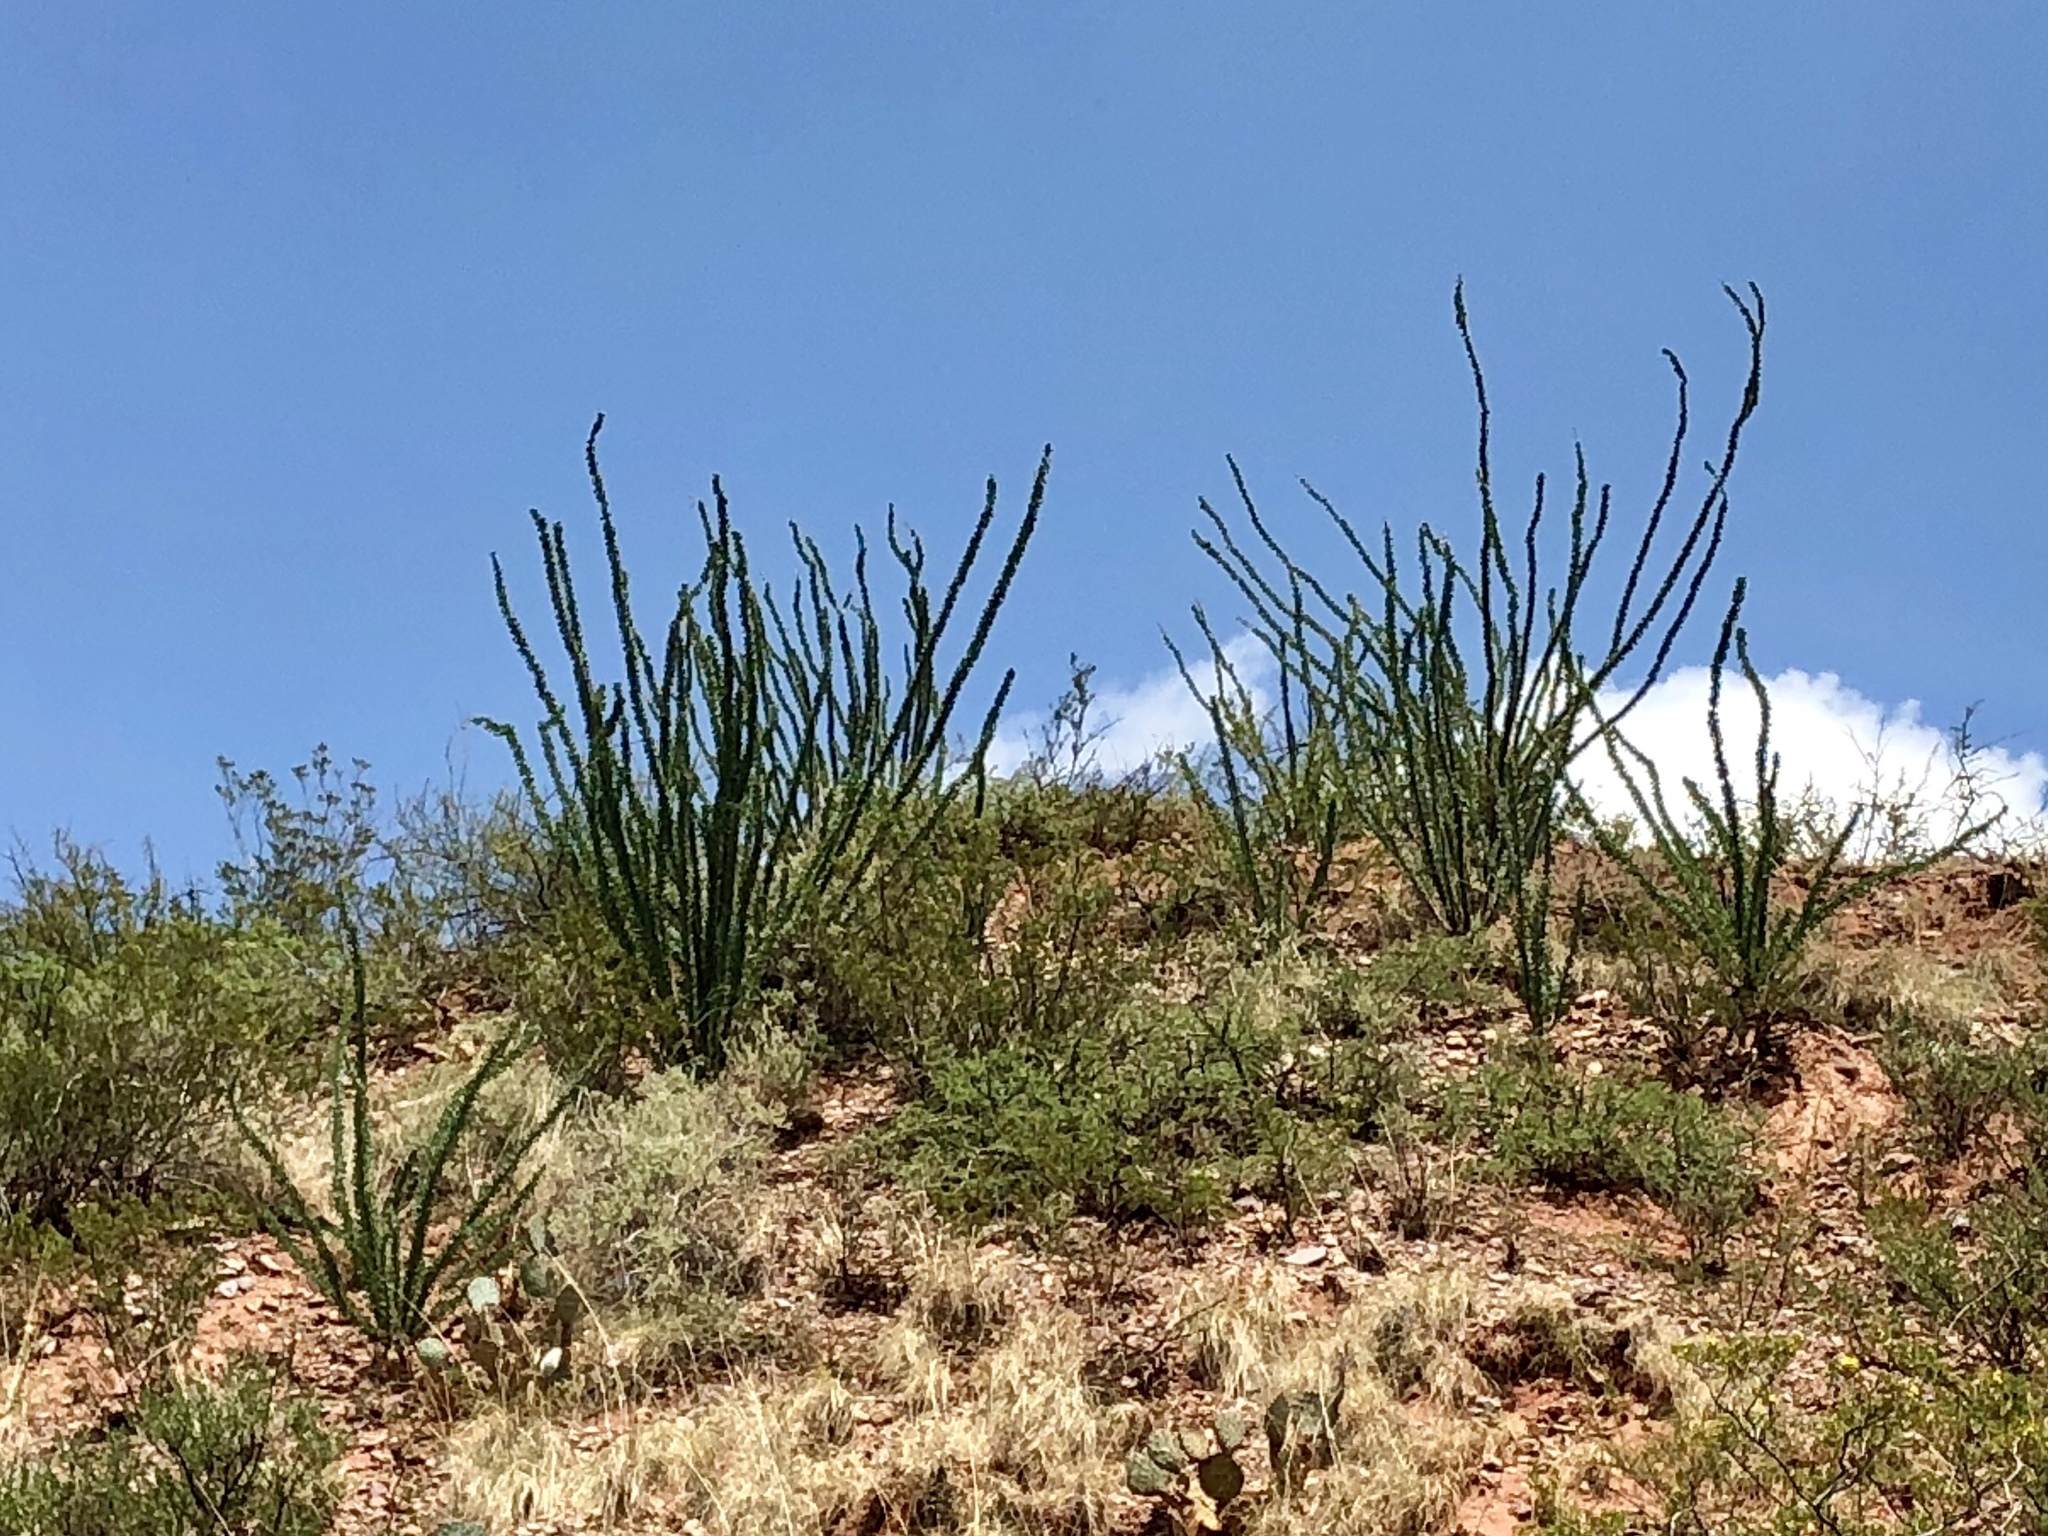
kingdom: Plantae
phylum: Tracheophyta
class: Magnoliopsida
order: Ericales
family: Fouquieriaceae
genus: Fouquieria
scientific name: Fouquieria splendens
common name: Vine-cactus
